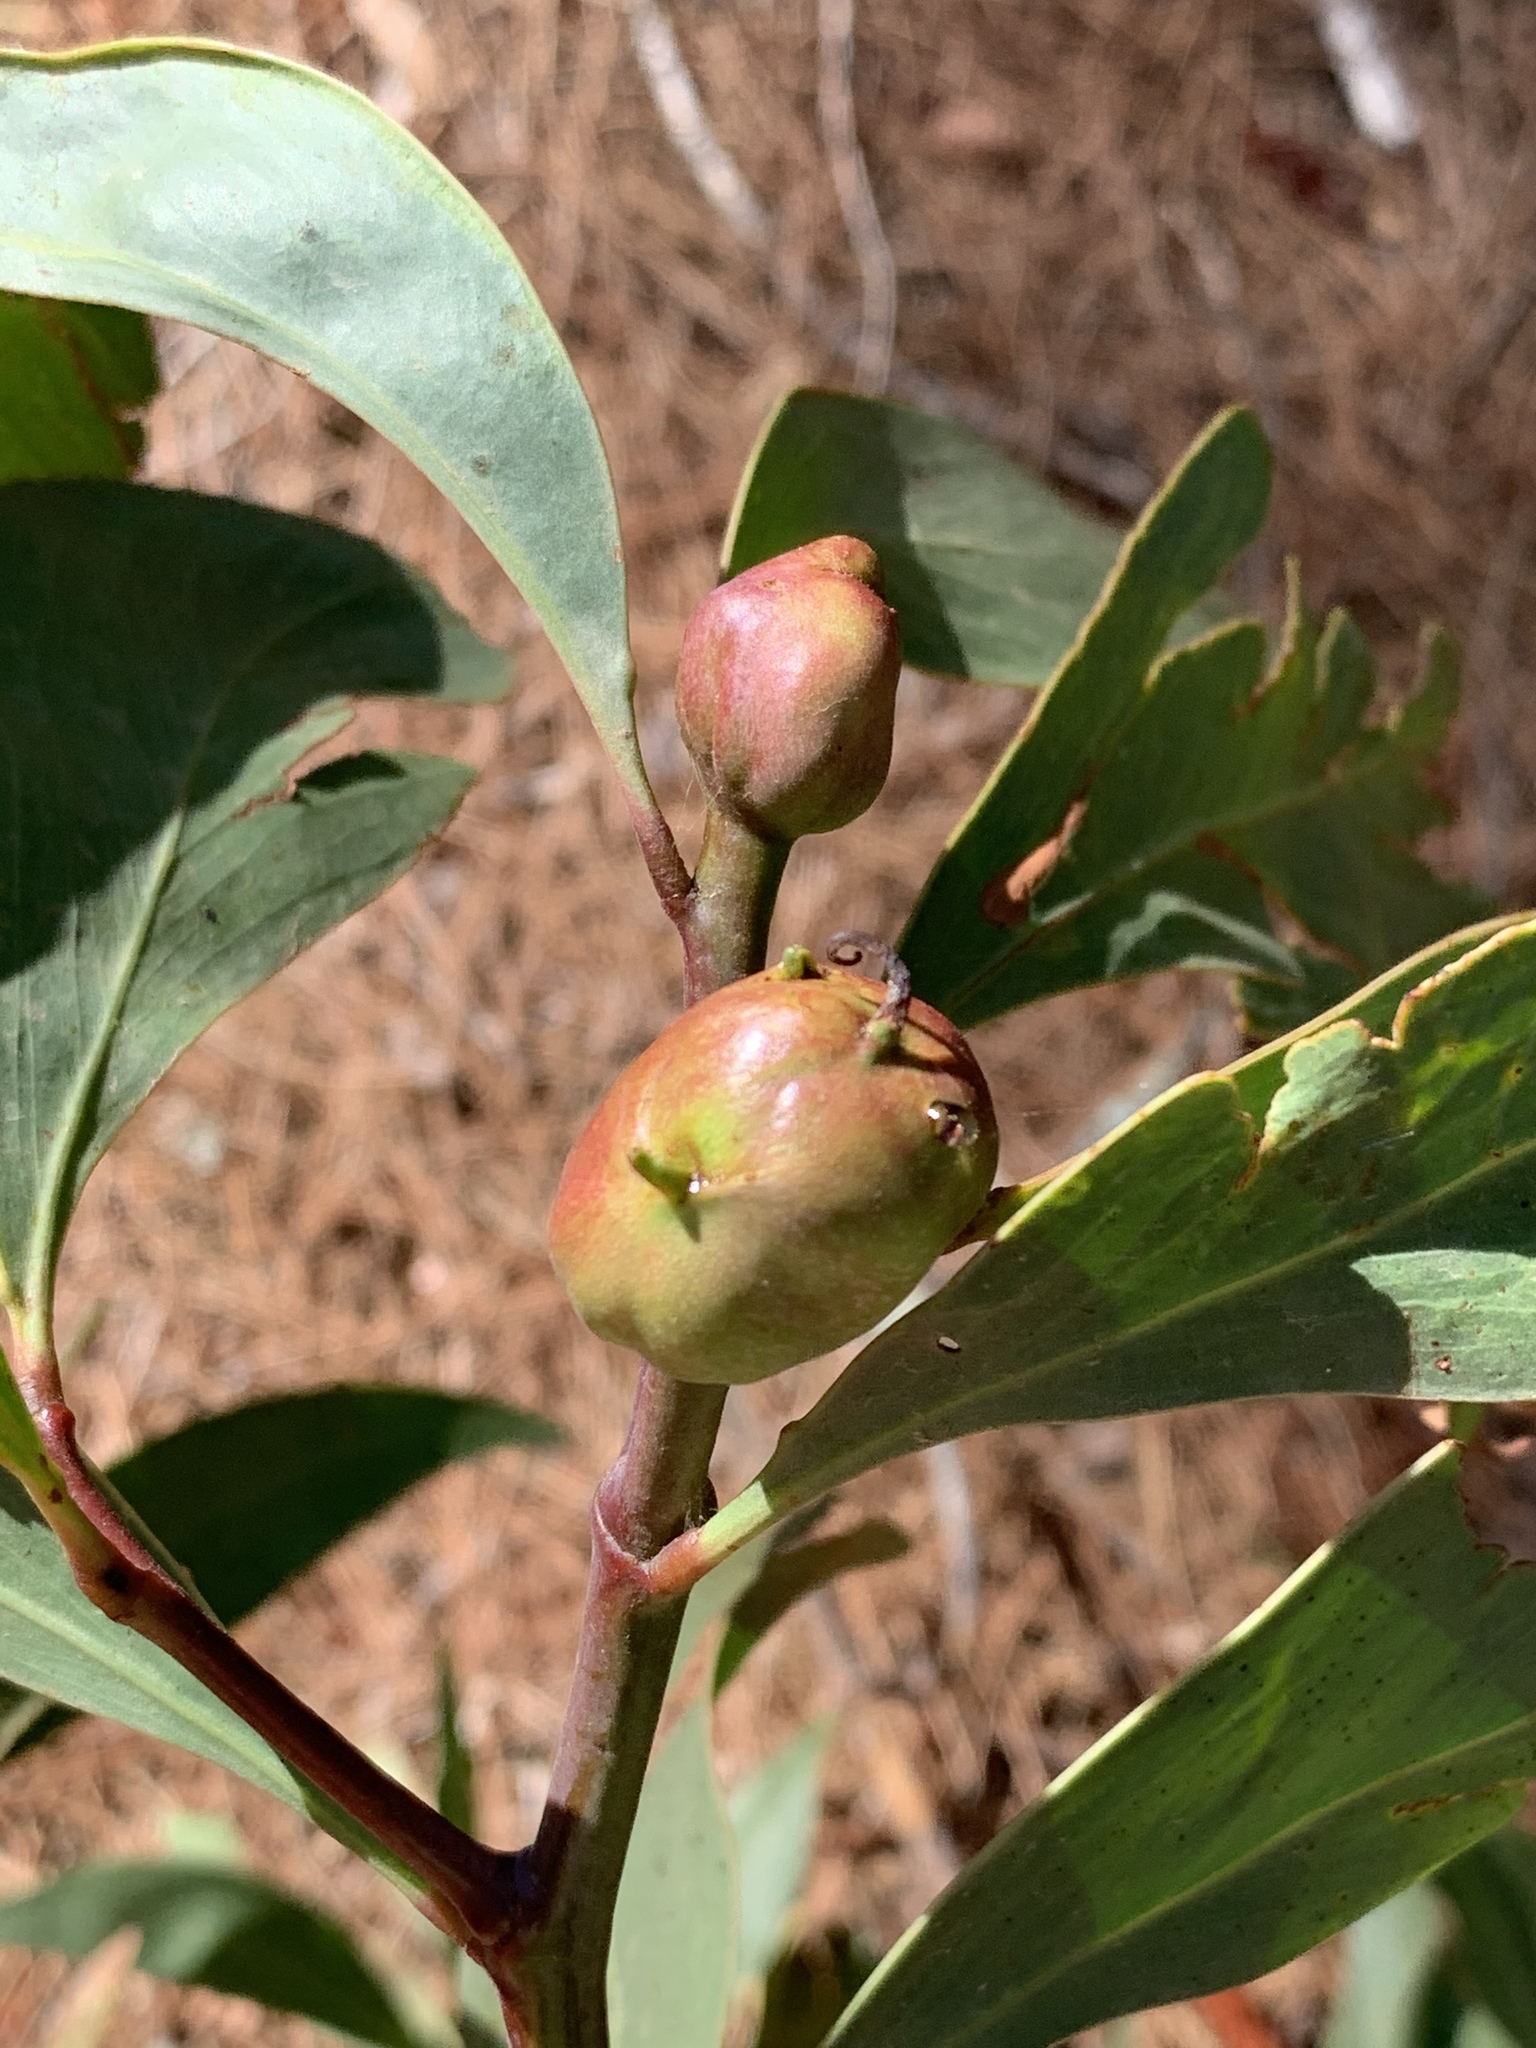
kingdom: Animalia
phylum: Arthropoda
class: Insecta
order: Hymenoptera
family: Pteromalidae
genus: Trichilogaster
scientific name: Trichilogaster signiventris
